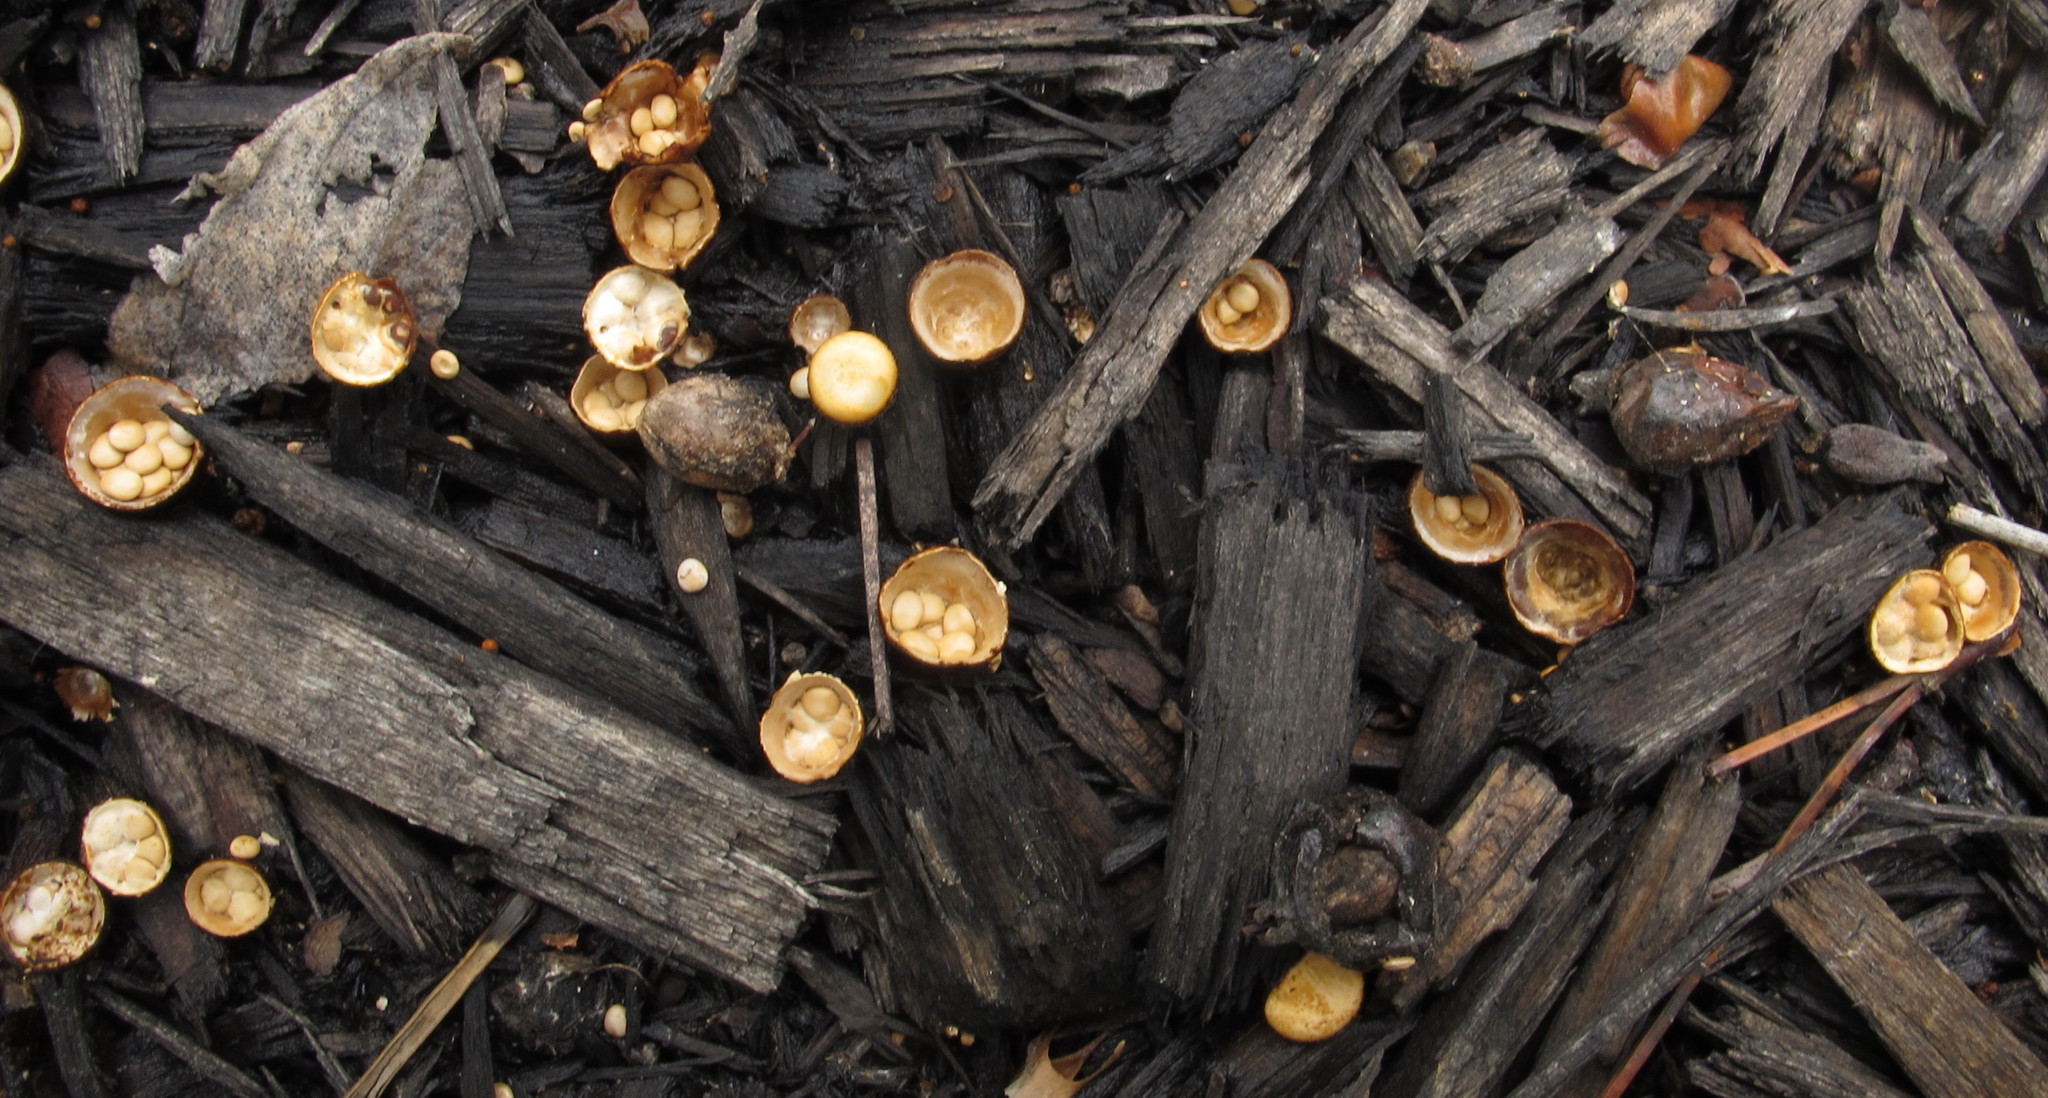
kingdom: Fungi
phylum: Basidiomycota
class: Agaricomycetes
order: Agaricales
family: Nidulariaceae
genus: Crucibulum
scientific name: Crucibulum laeve
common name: Common bird's nest
